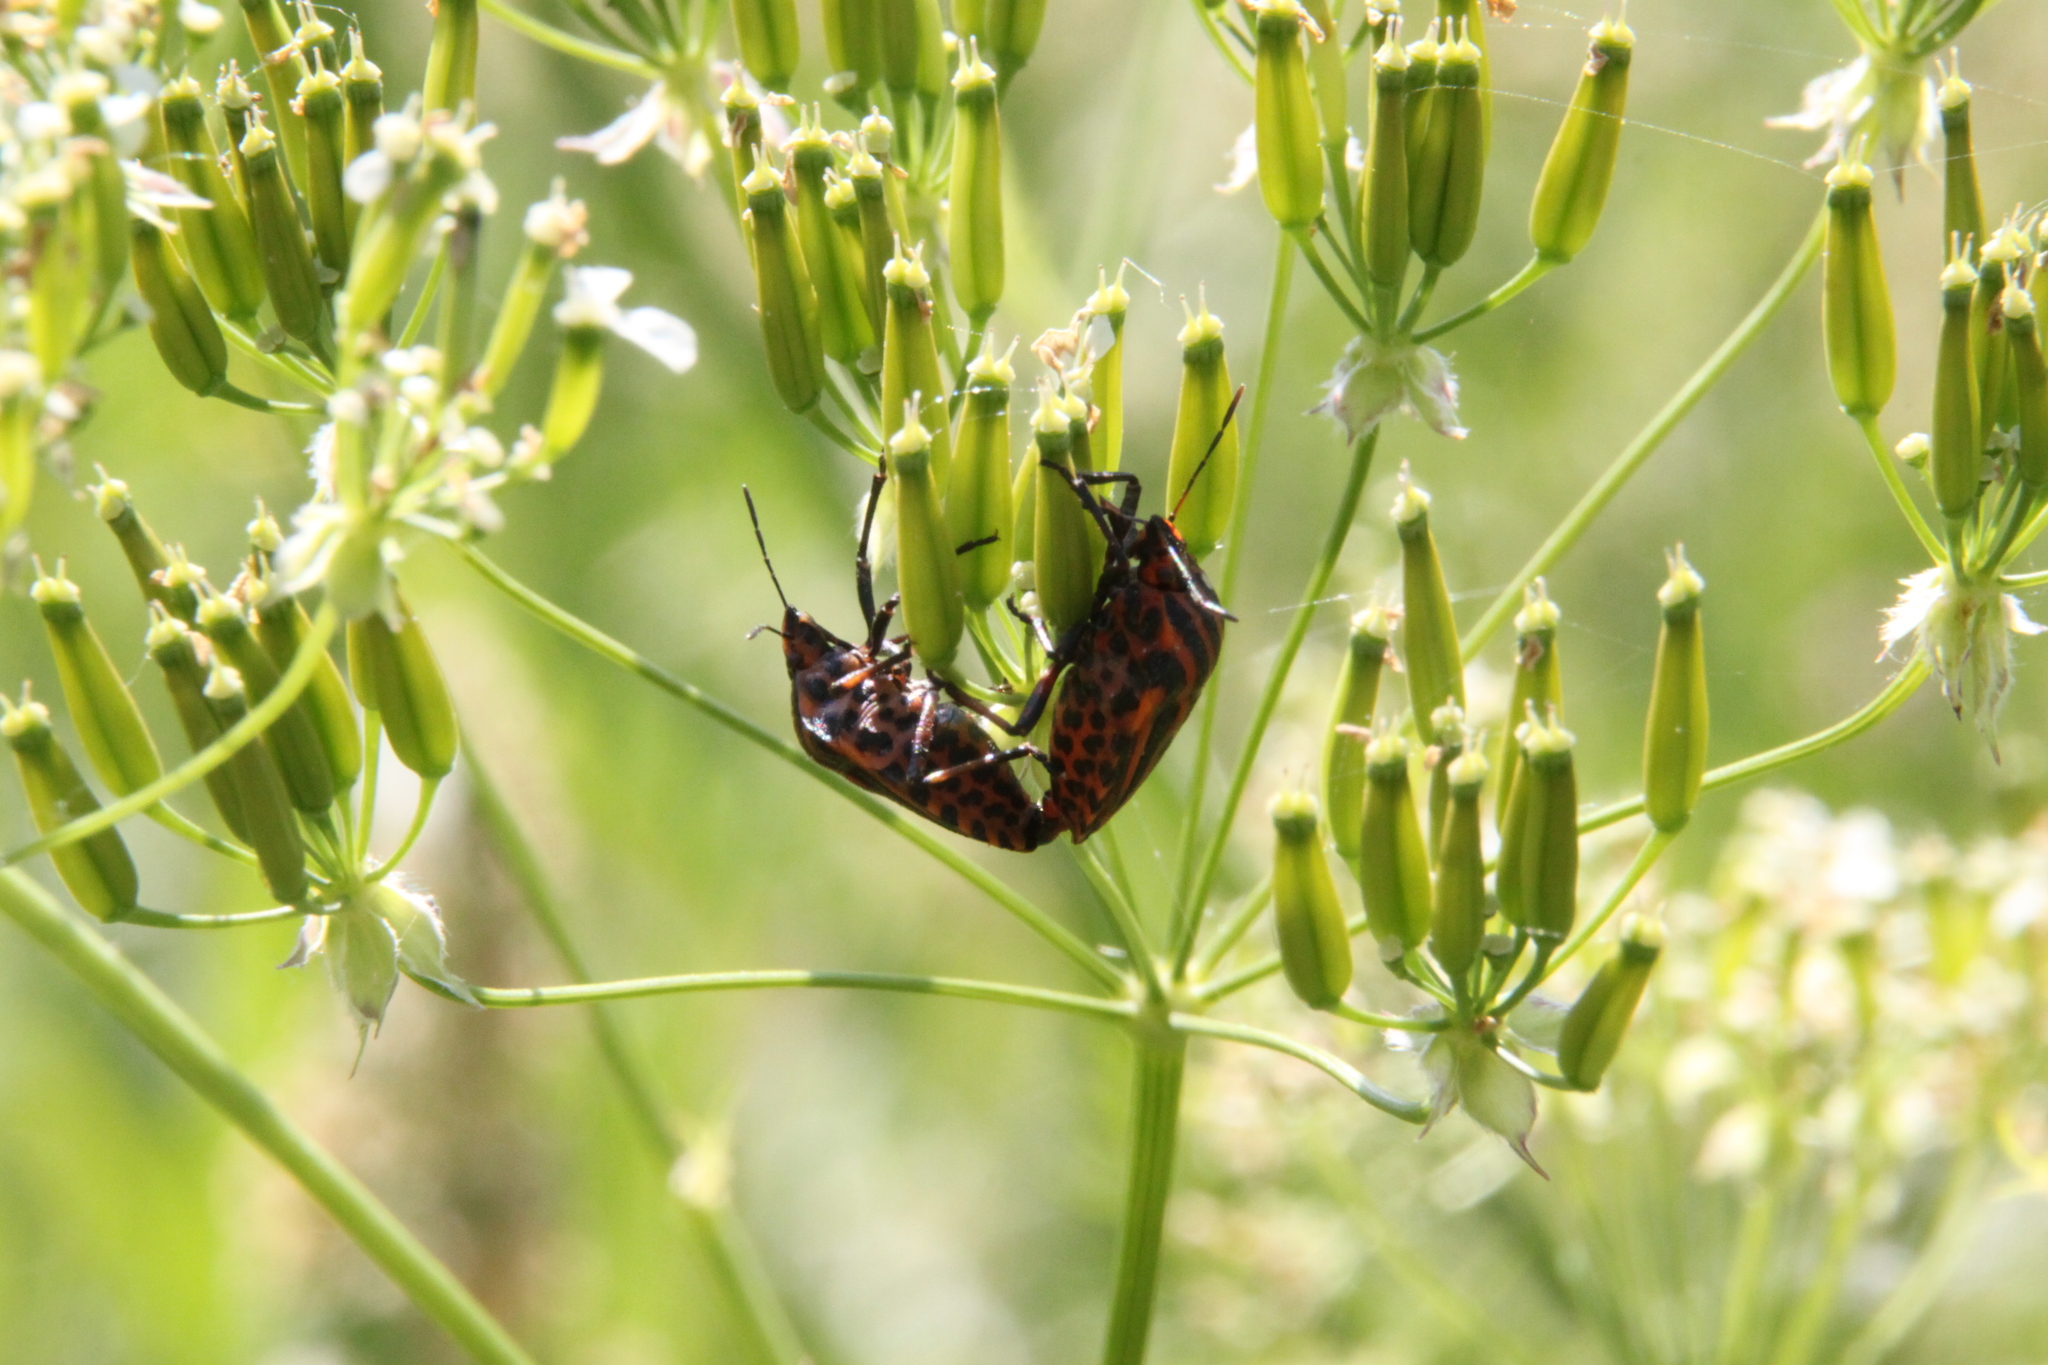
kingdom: Animalia
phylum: Arthropoda
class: Insecta
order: Hemiptera
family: Pentatomidae
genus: Graphosoma
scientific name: Graphosoma italicum
